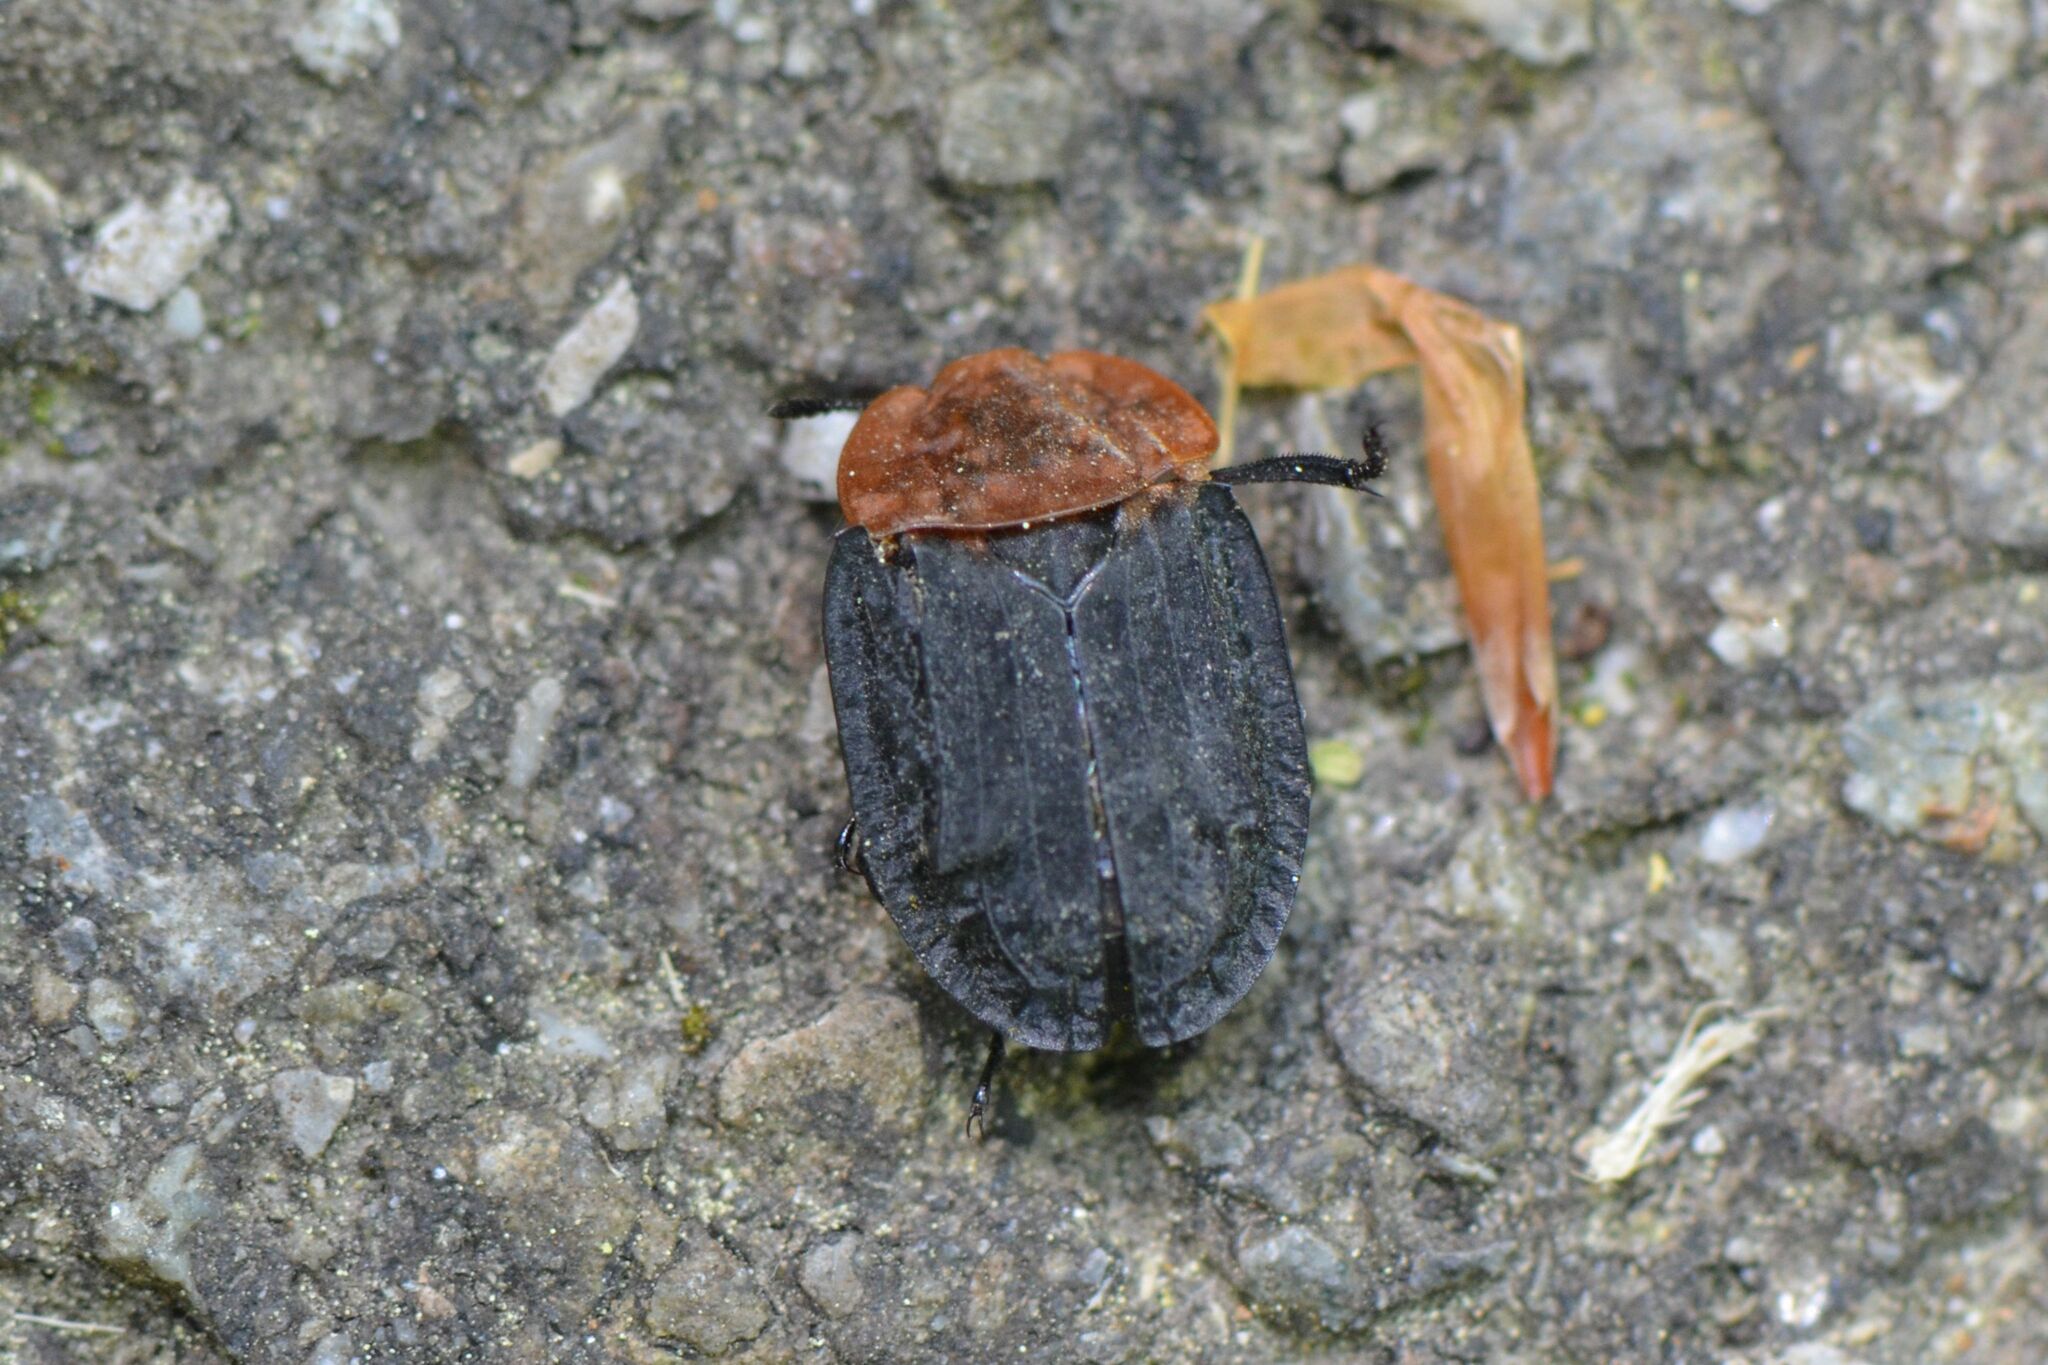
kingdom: Animalia
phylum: Arthropoda
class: Insecta
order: Coleoptera
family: Staphylinidae
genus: Oiceoptoma
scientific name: Oiceoptoma thoracicum
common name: Red-breasted carrion beetle
